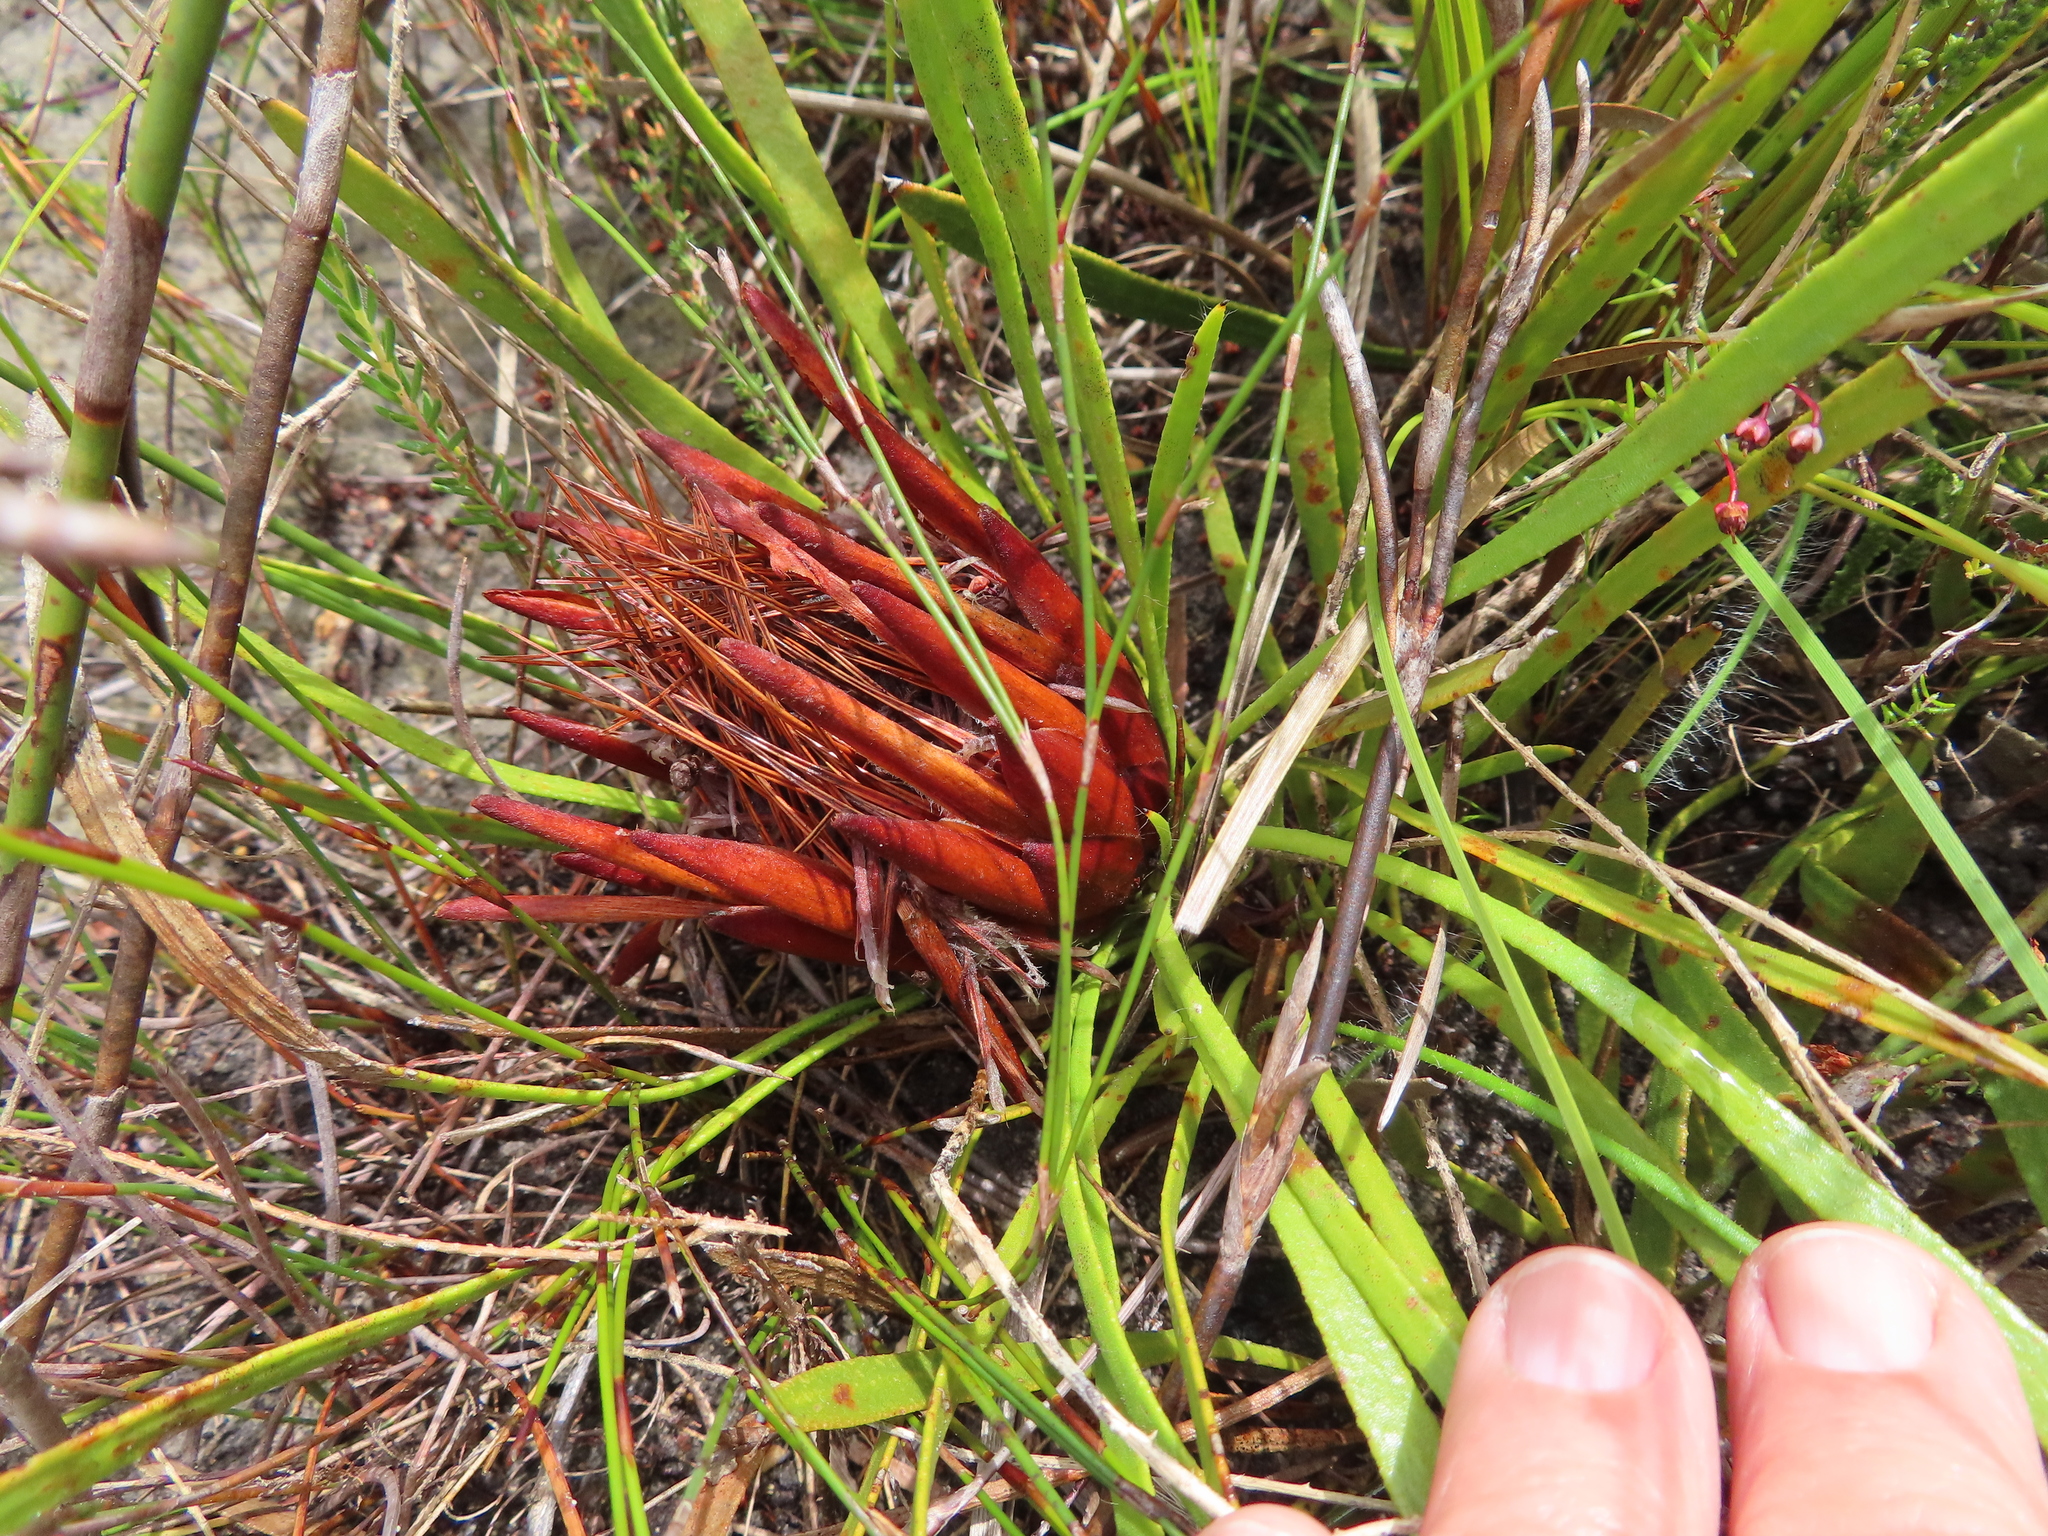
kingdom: Plantae
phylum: Tracheophyta
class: Magnoliopsida
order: Proteales
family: Proteaceae
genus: Protea
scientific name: Protea aspera
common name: Rough-leaf sugarbush
